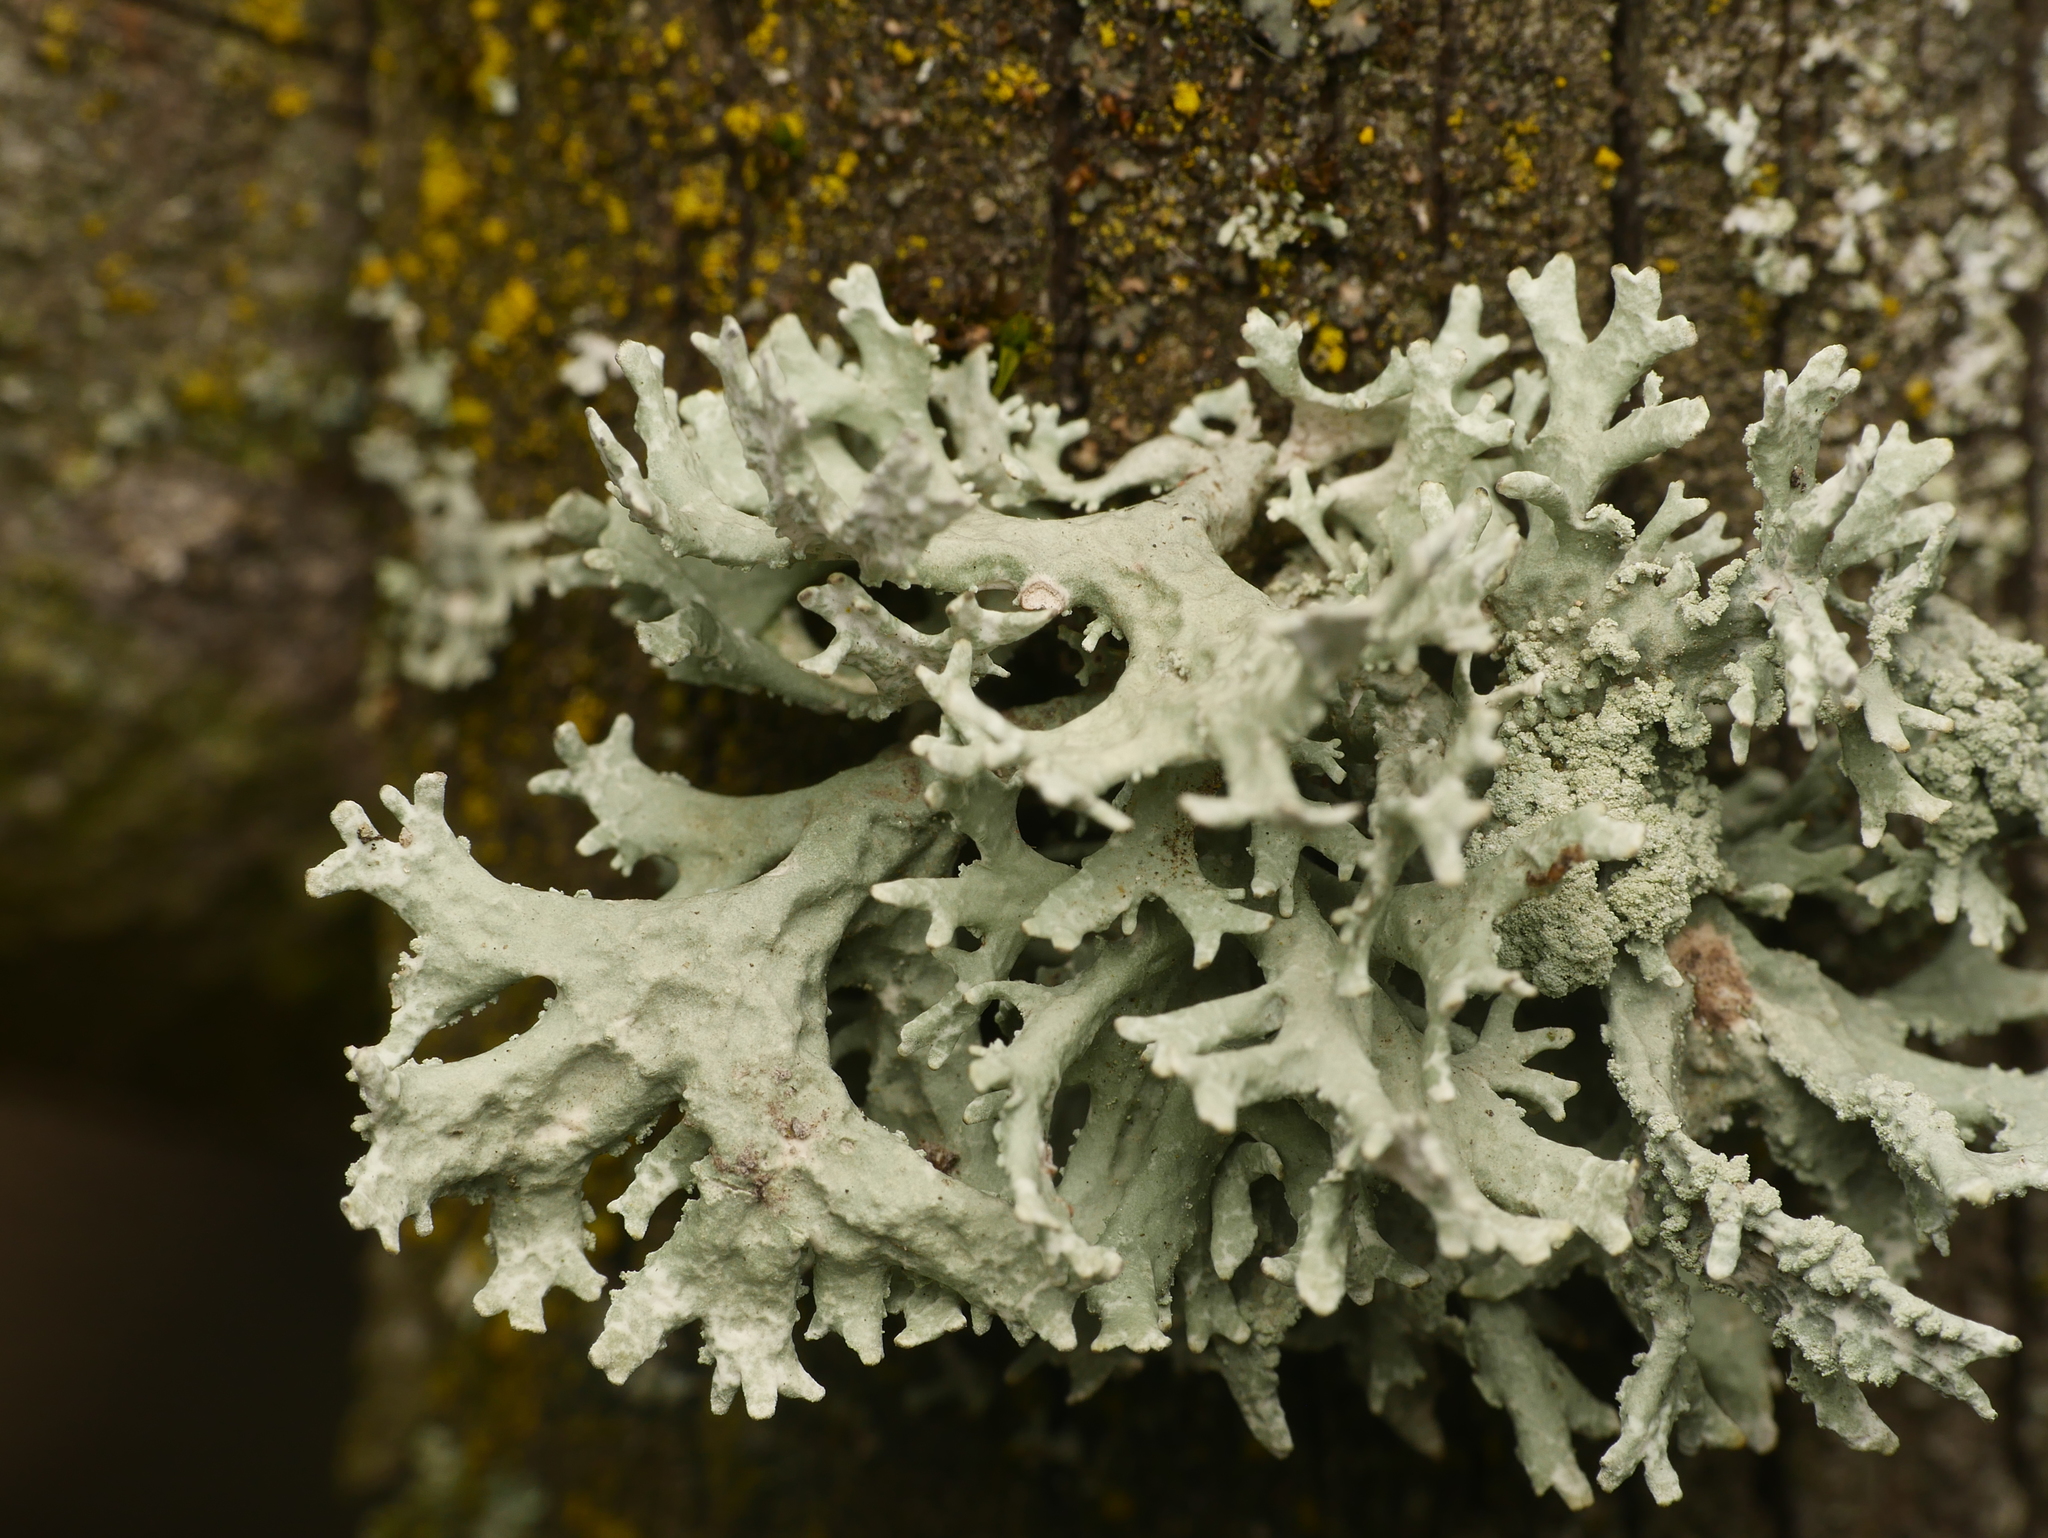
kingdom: Fungi
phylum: Ascomycota
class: Lecanoromycetes
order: Lecanorales
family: Parmeliaceae
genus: Evernia
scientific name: Evernia prunastri
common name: Oak moss
